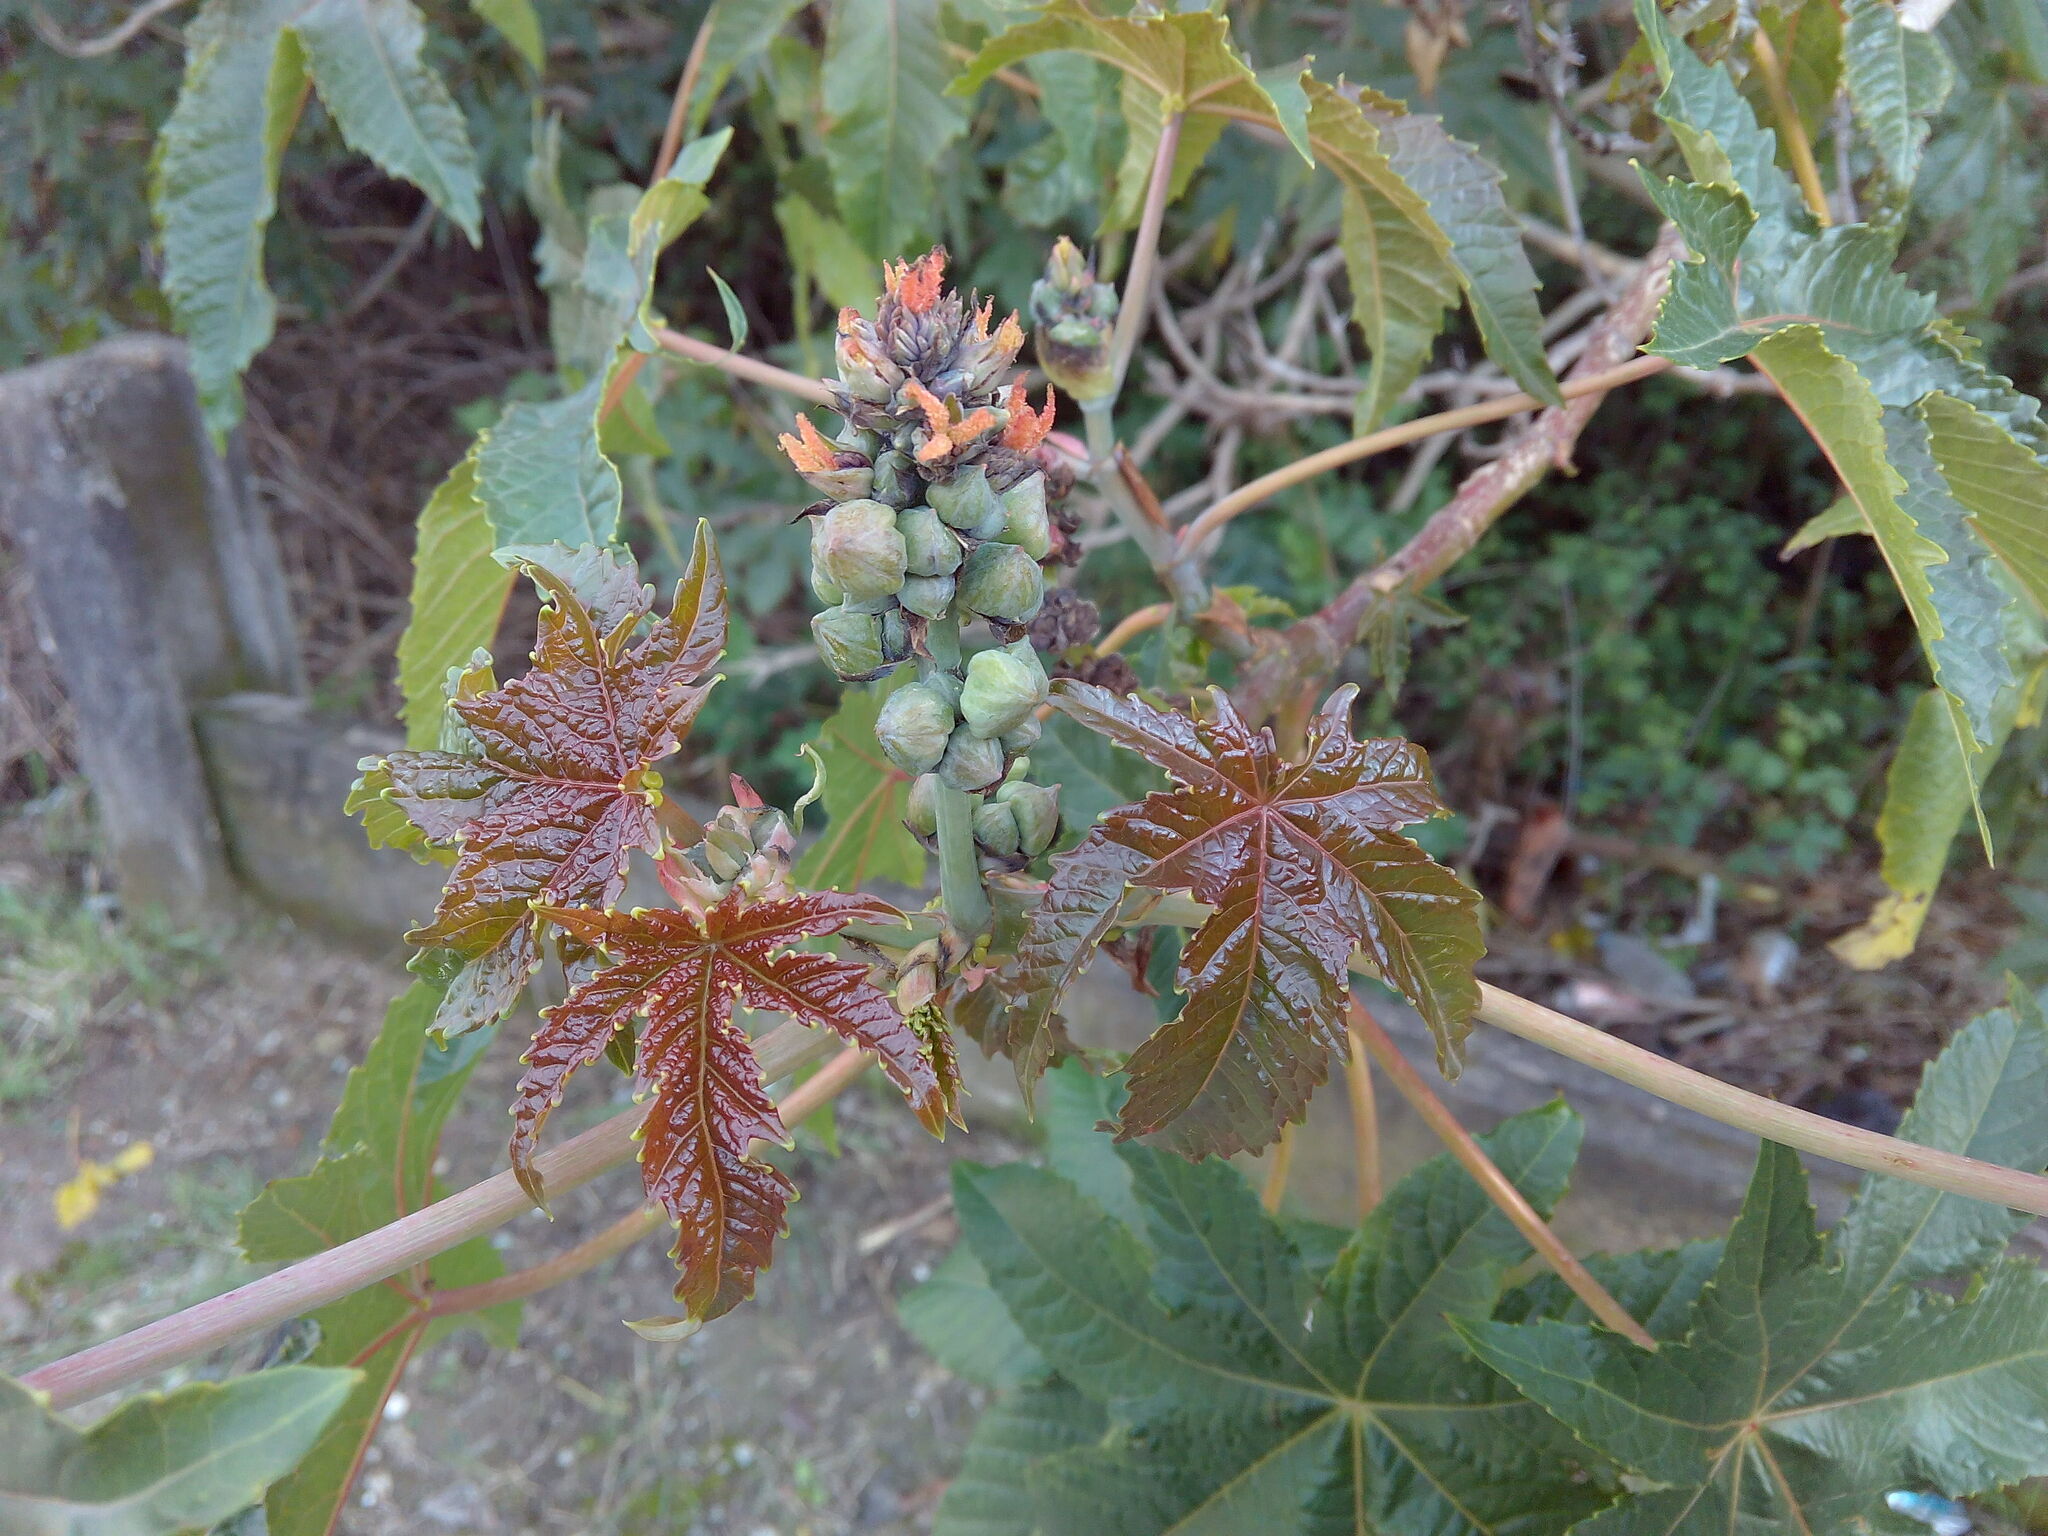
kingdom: Plantae
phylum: Tracheophyta
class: Magnoliopsida
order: Malpighiales
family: Euphorbiaceae
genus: Ricinus
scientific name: Ricinus communis
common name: Castor-oil-plant
